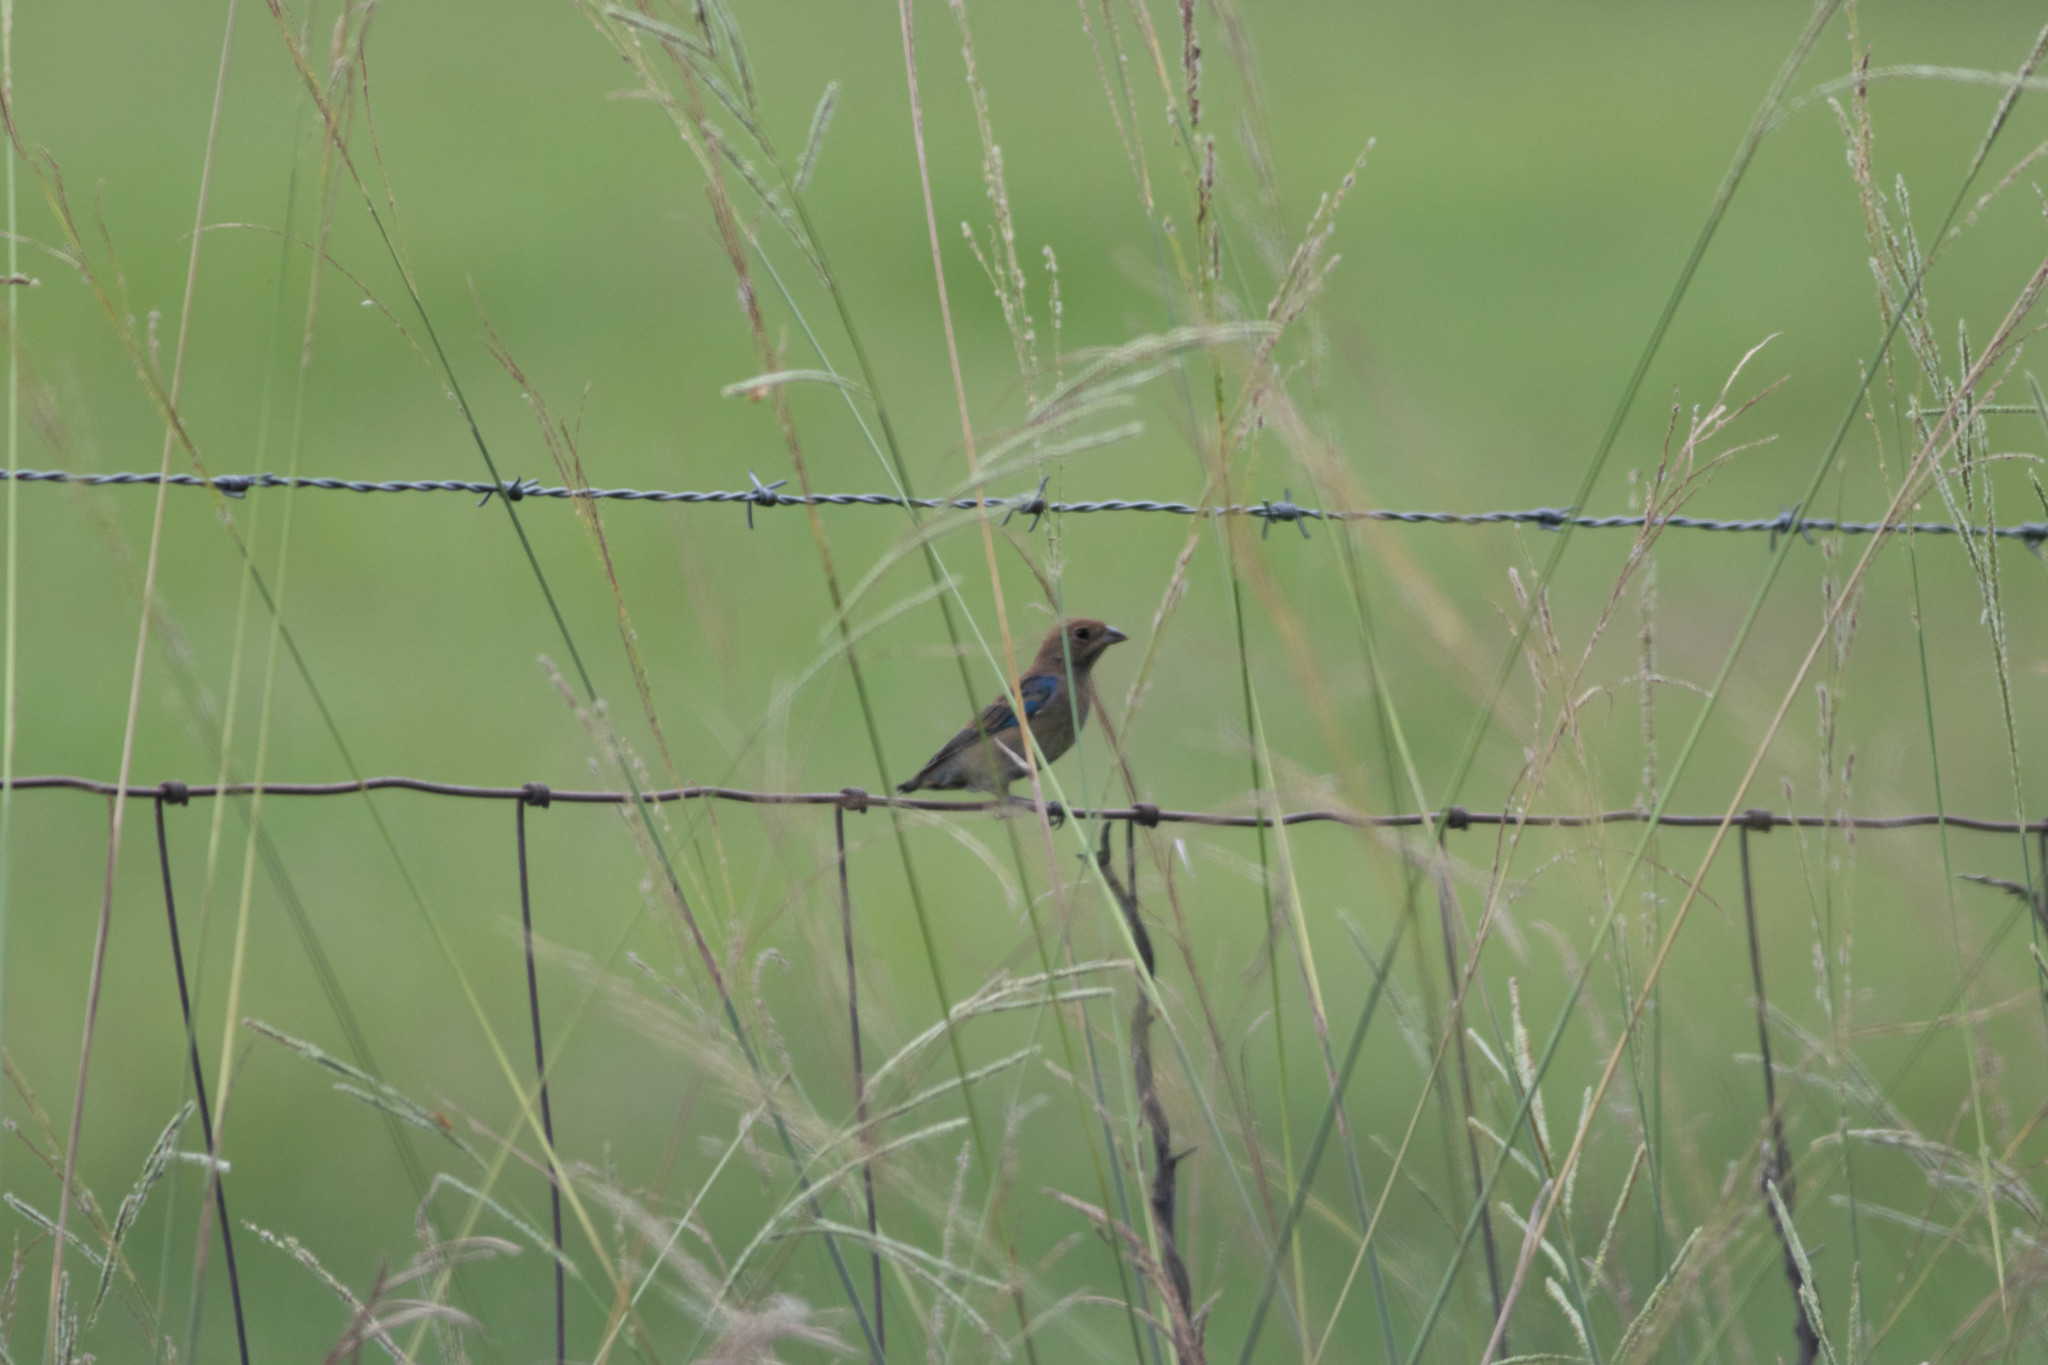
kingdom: Animalia
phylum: Chordata
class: Aves
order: Passeriformes
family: Cardinalidae
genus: Passerina
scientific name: Passerina cyanea
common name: Indigo bunting
